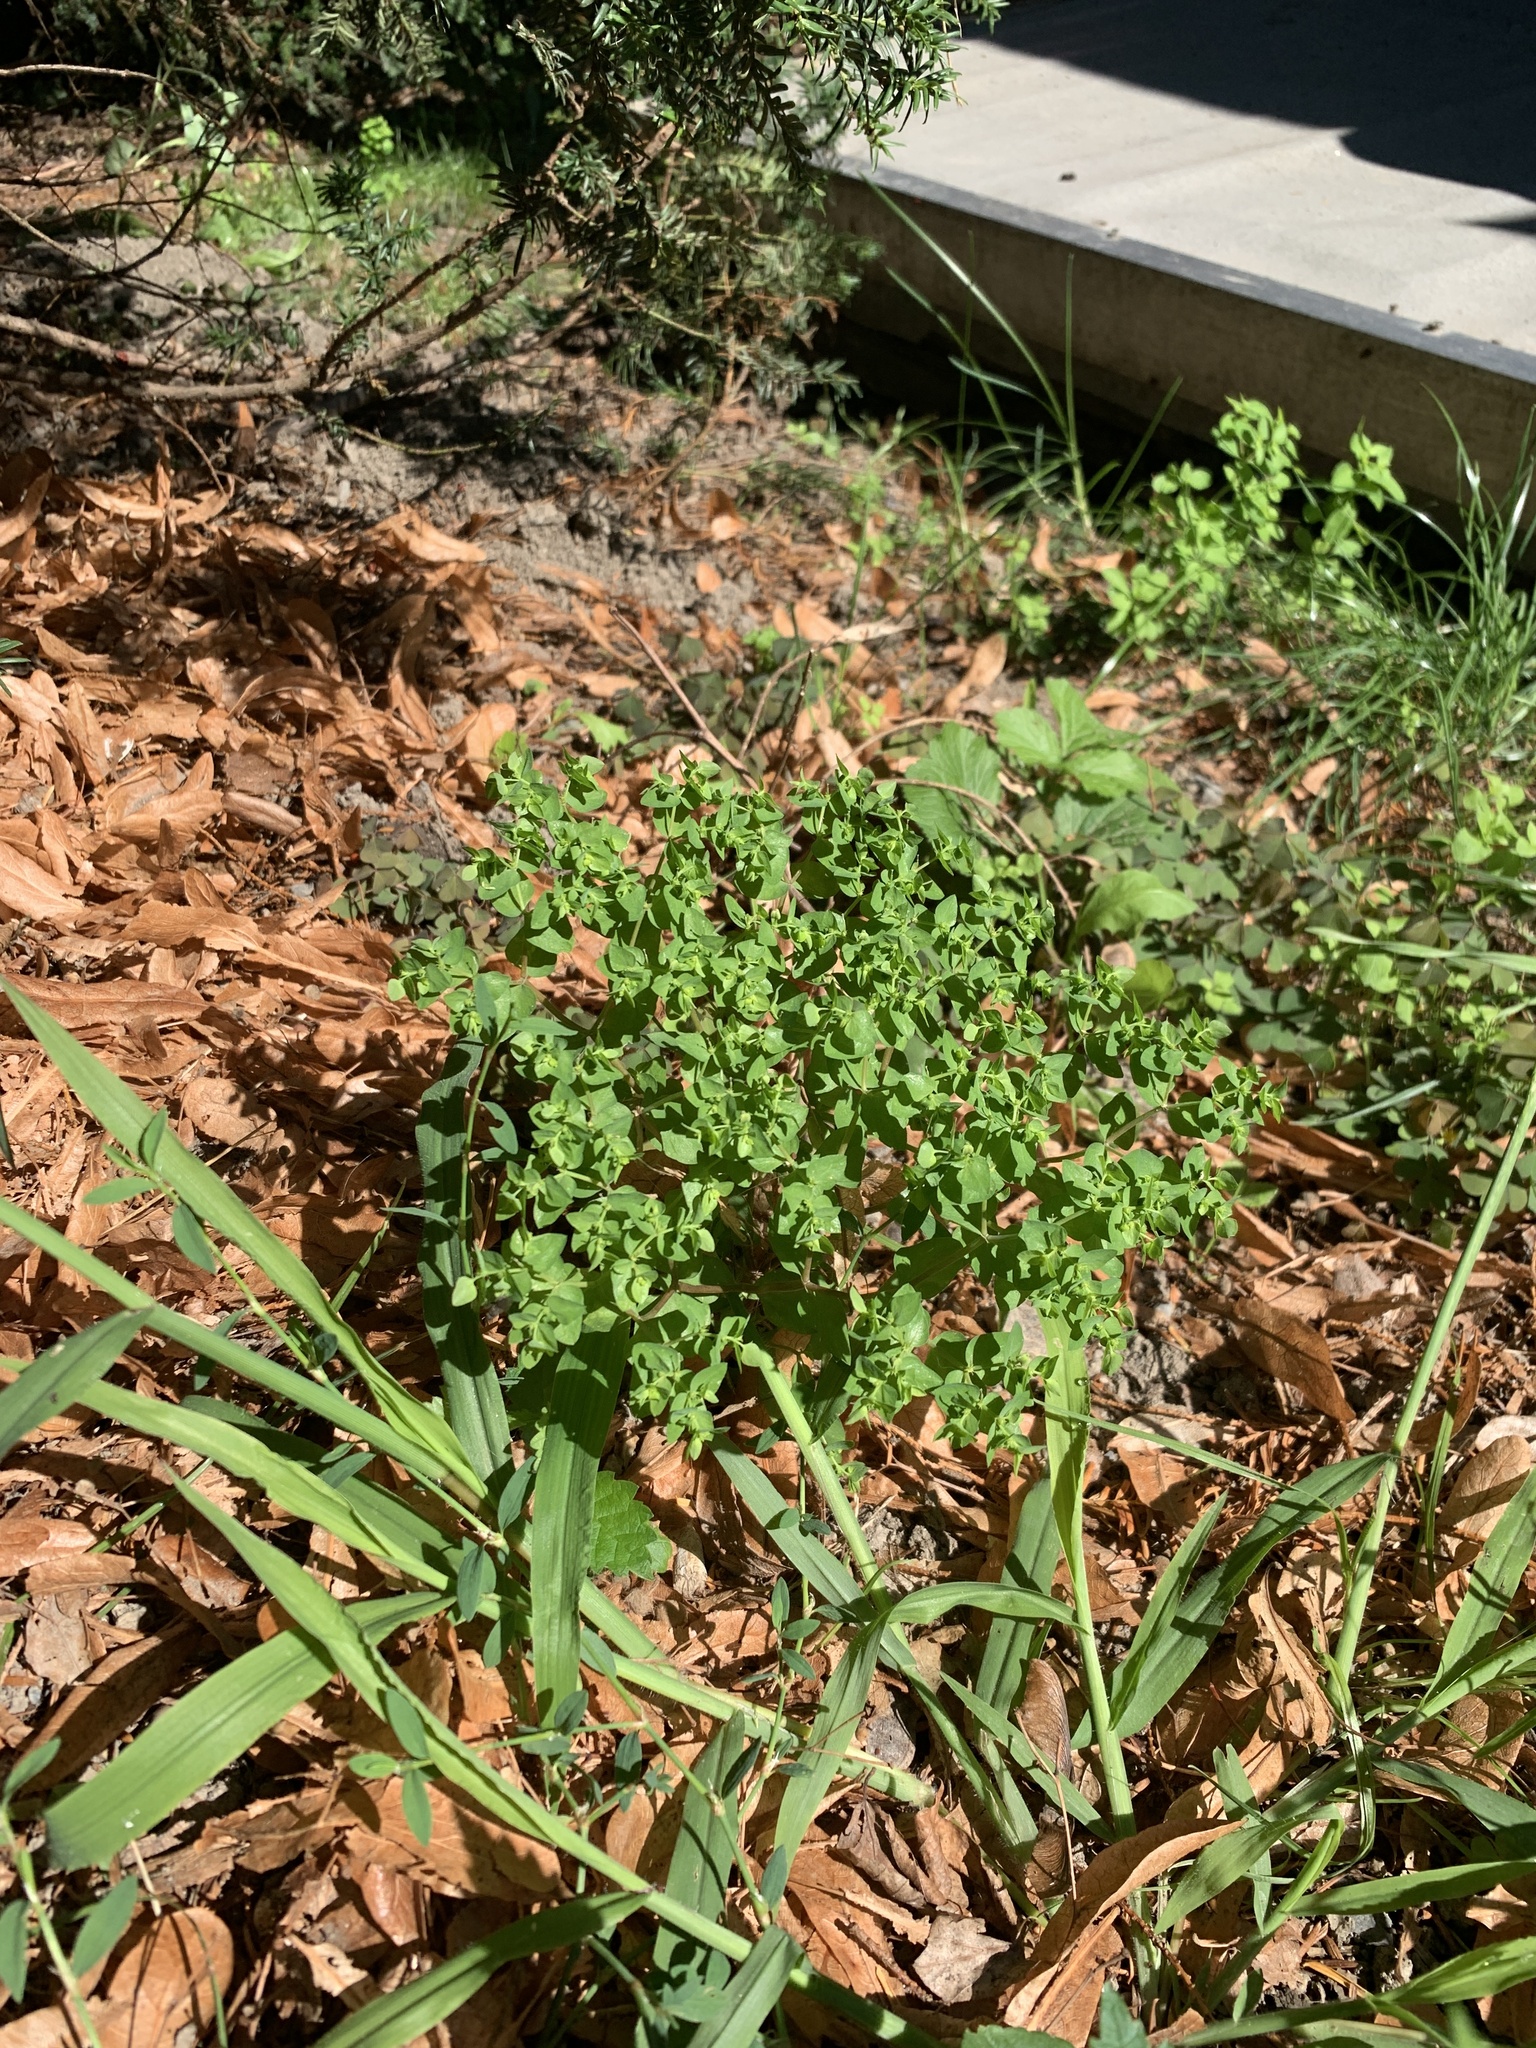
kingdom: Plantae
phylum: Tracheophyta
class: Magnoliopsida
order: Malpighiales
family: Euphorbiaceae
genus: Euphorbia
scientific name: Euphorbia peplus
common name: Petty spurge
